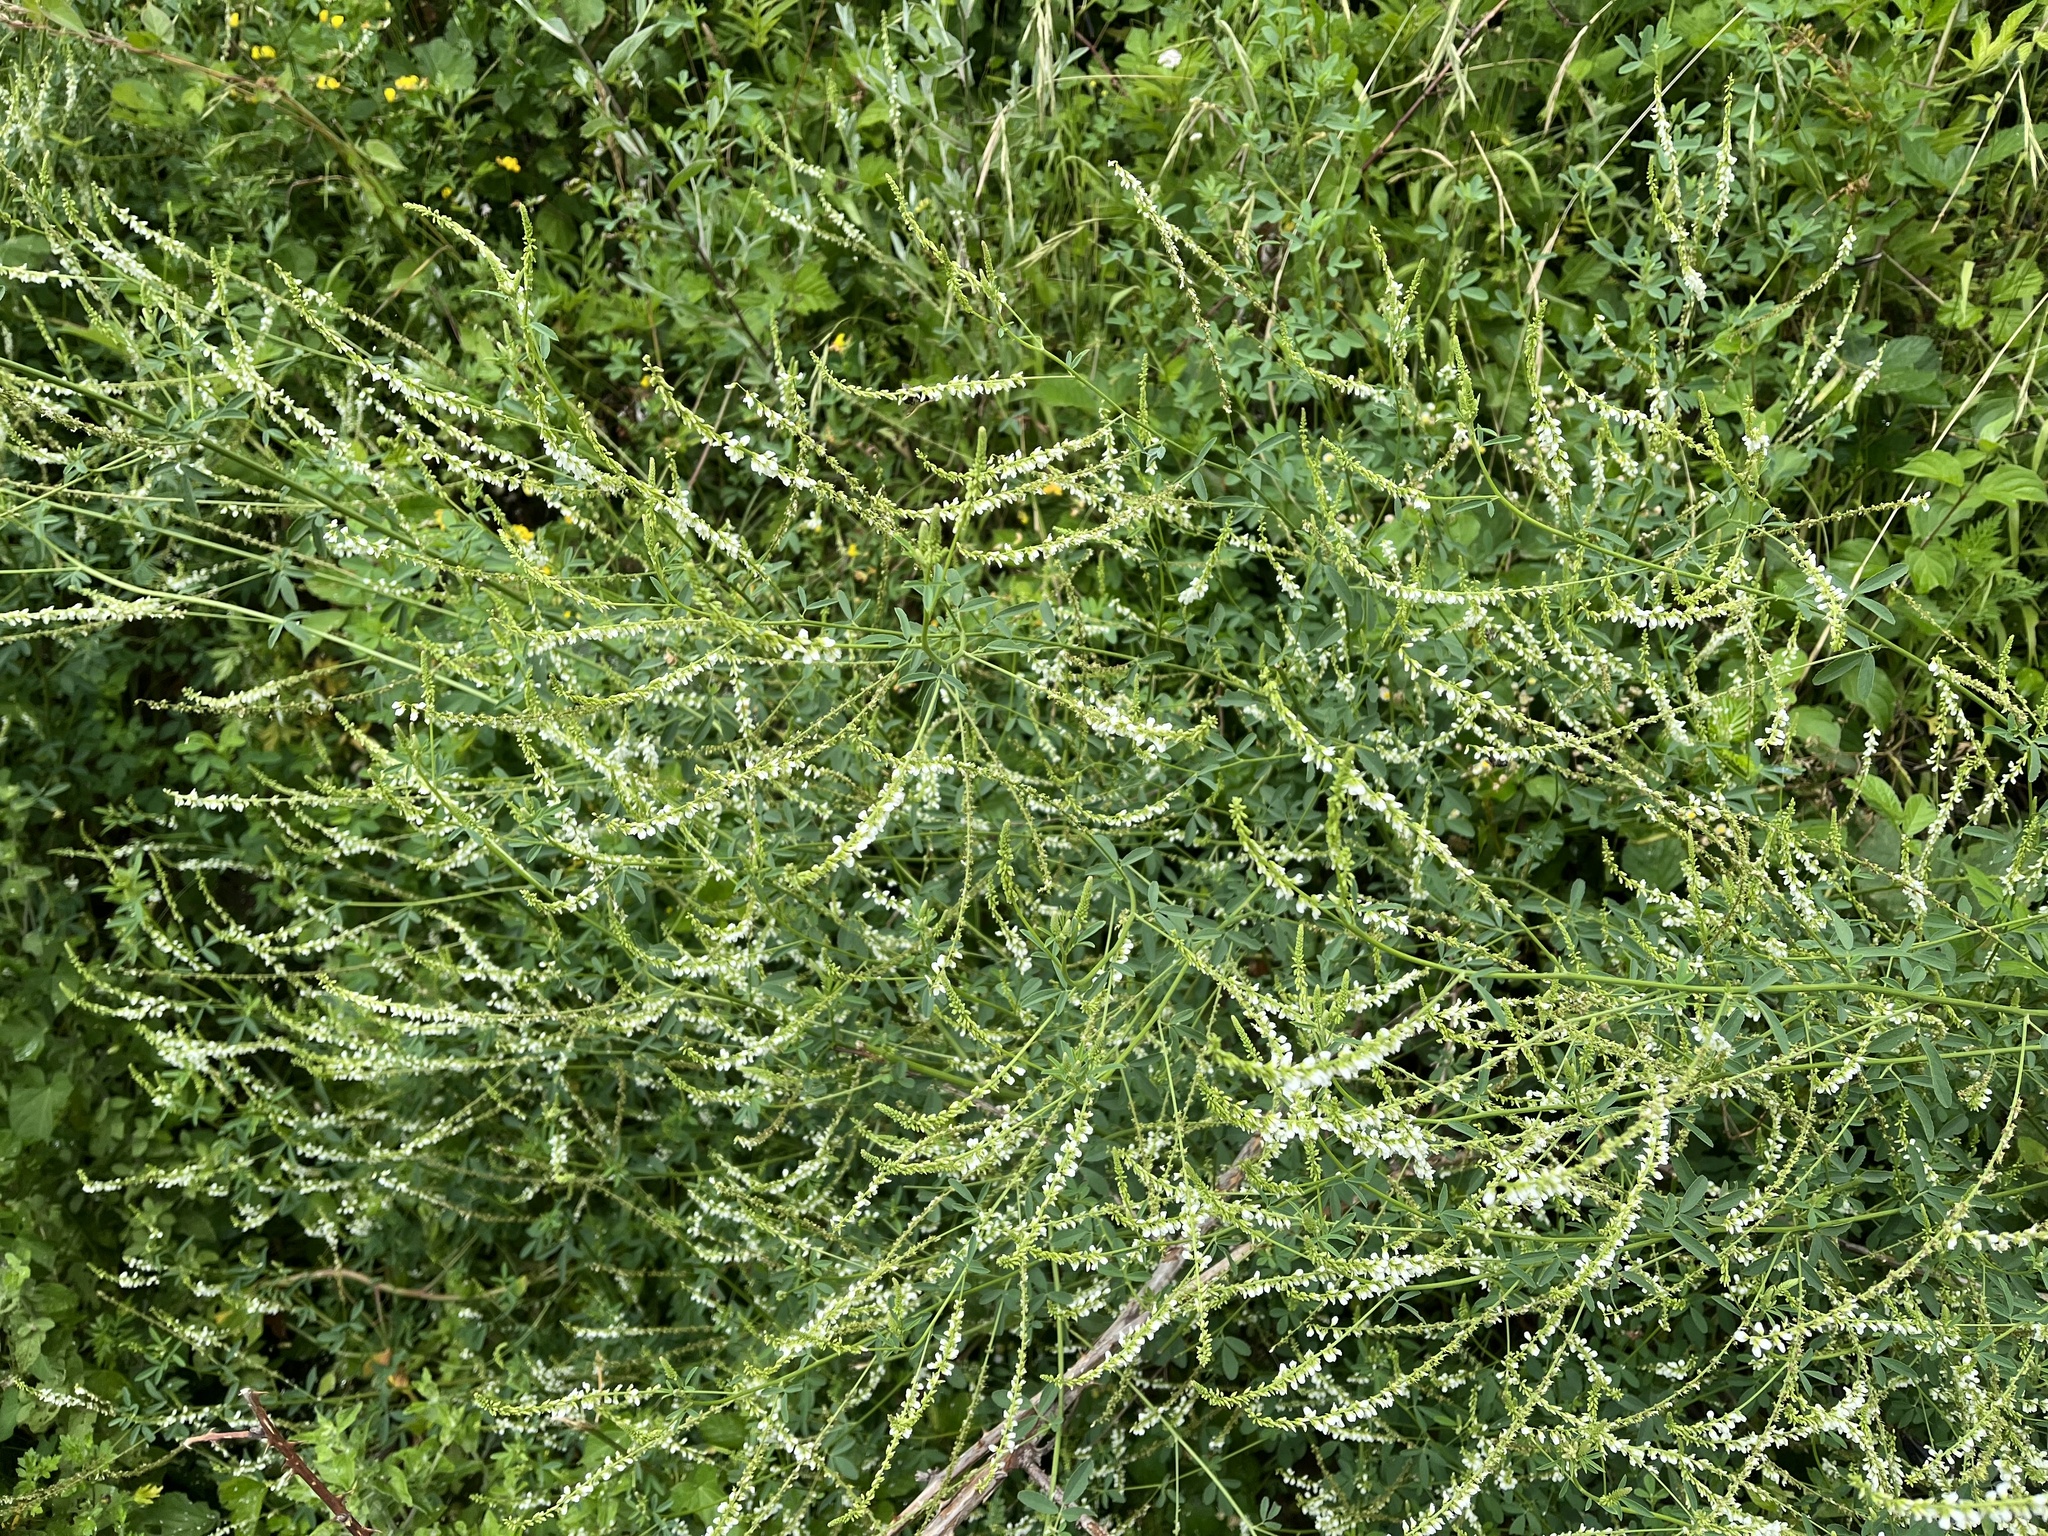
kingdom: Plantae
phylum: Tracheophyta
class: Magnoliopsida
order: Fabales
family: Fabaceae
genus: Melilotus
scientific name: Melilotus albus
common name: White melilot
